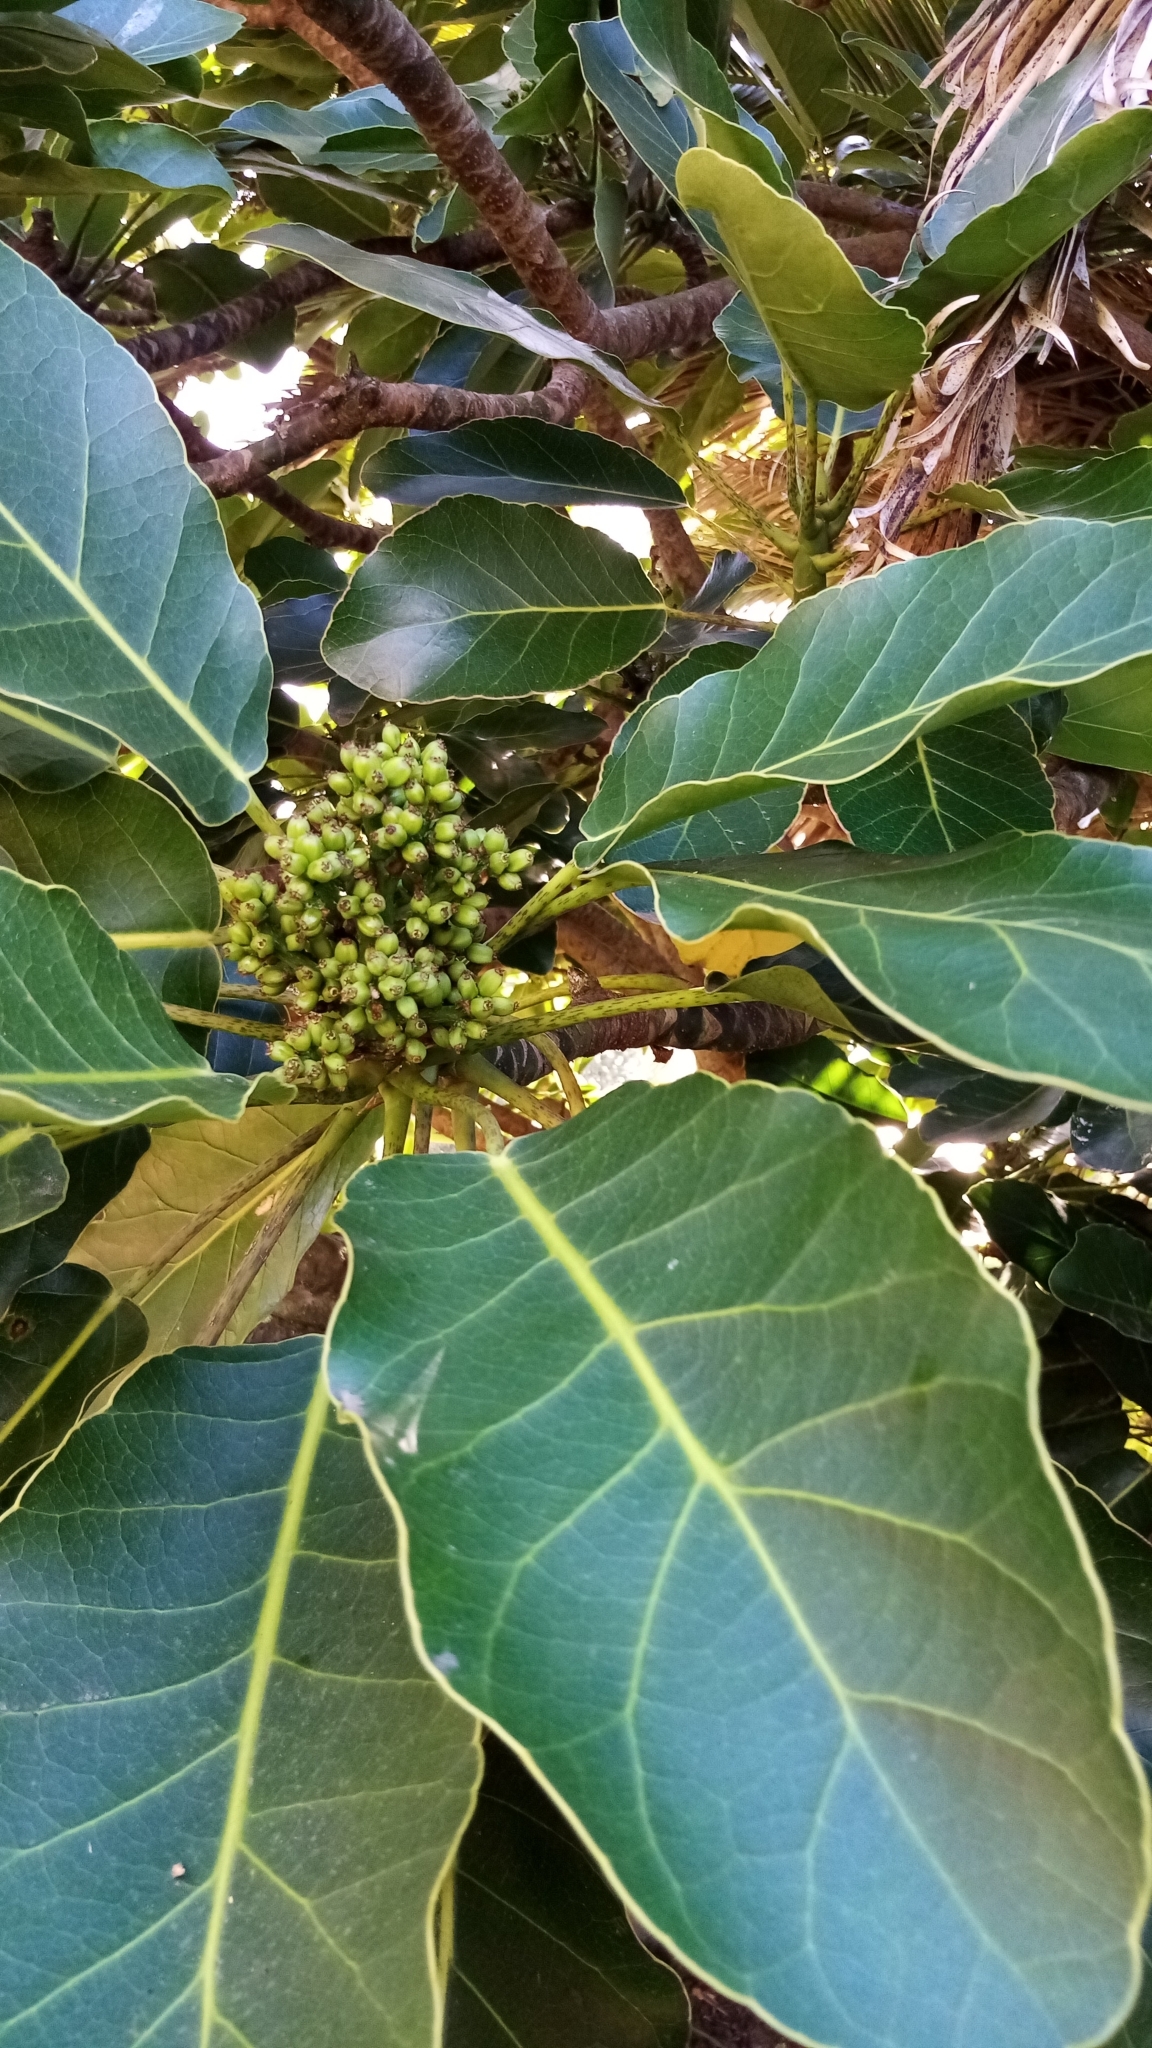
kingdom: Plantae
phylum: Tracheophyta
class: Magnoliopsida
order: Apiales
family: Araliaceae
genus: Meryta
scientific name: Meryta sinclairii
